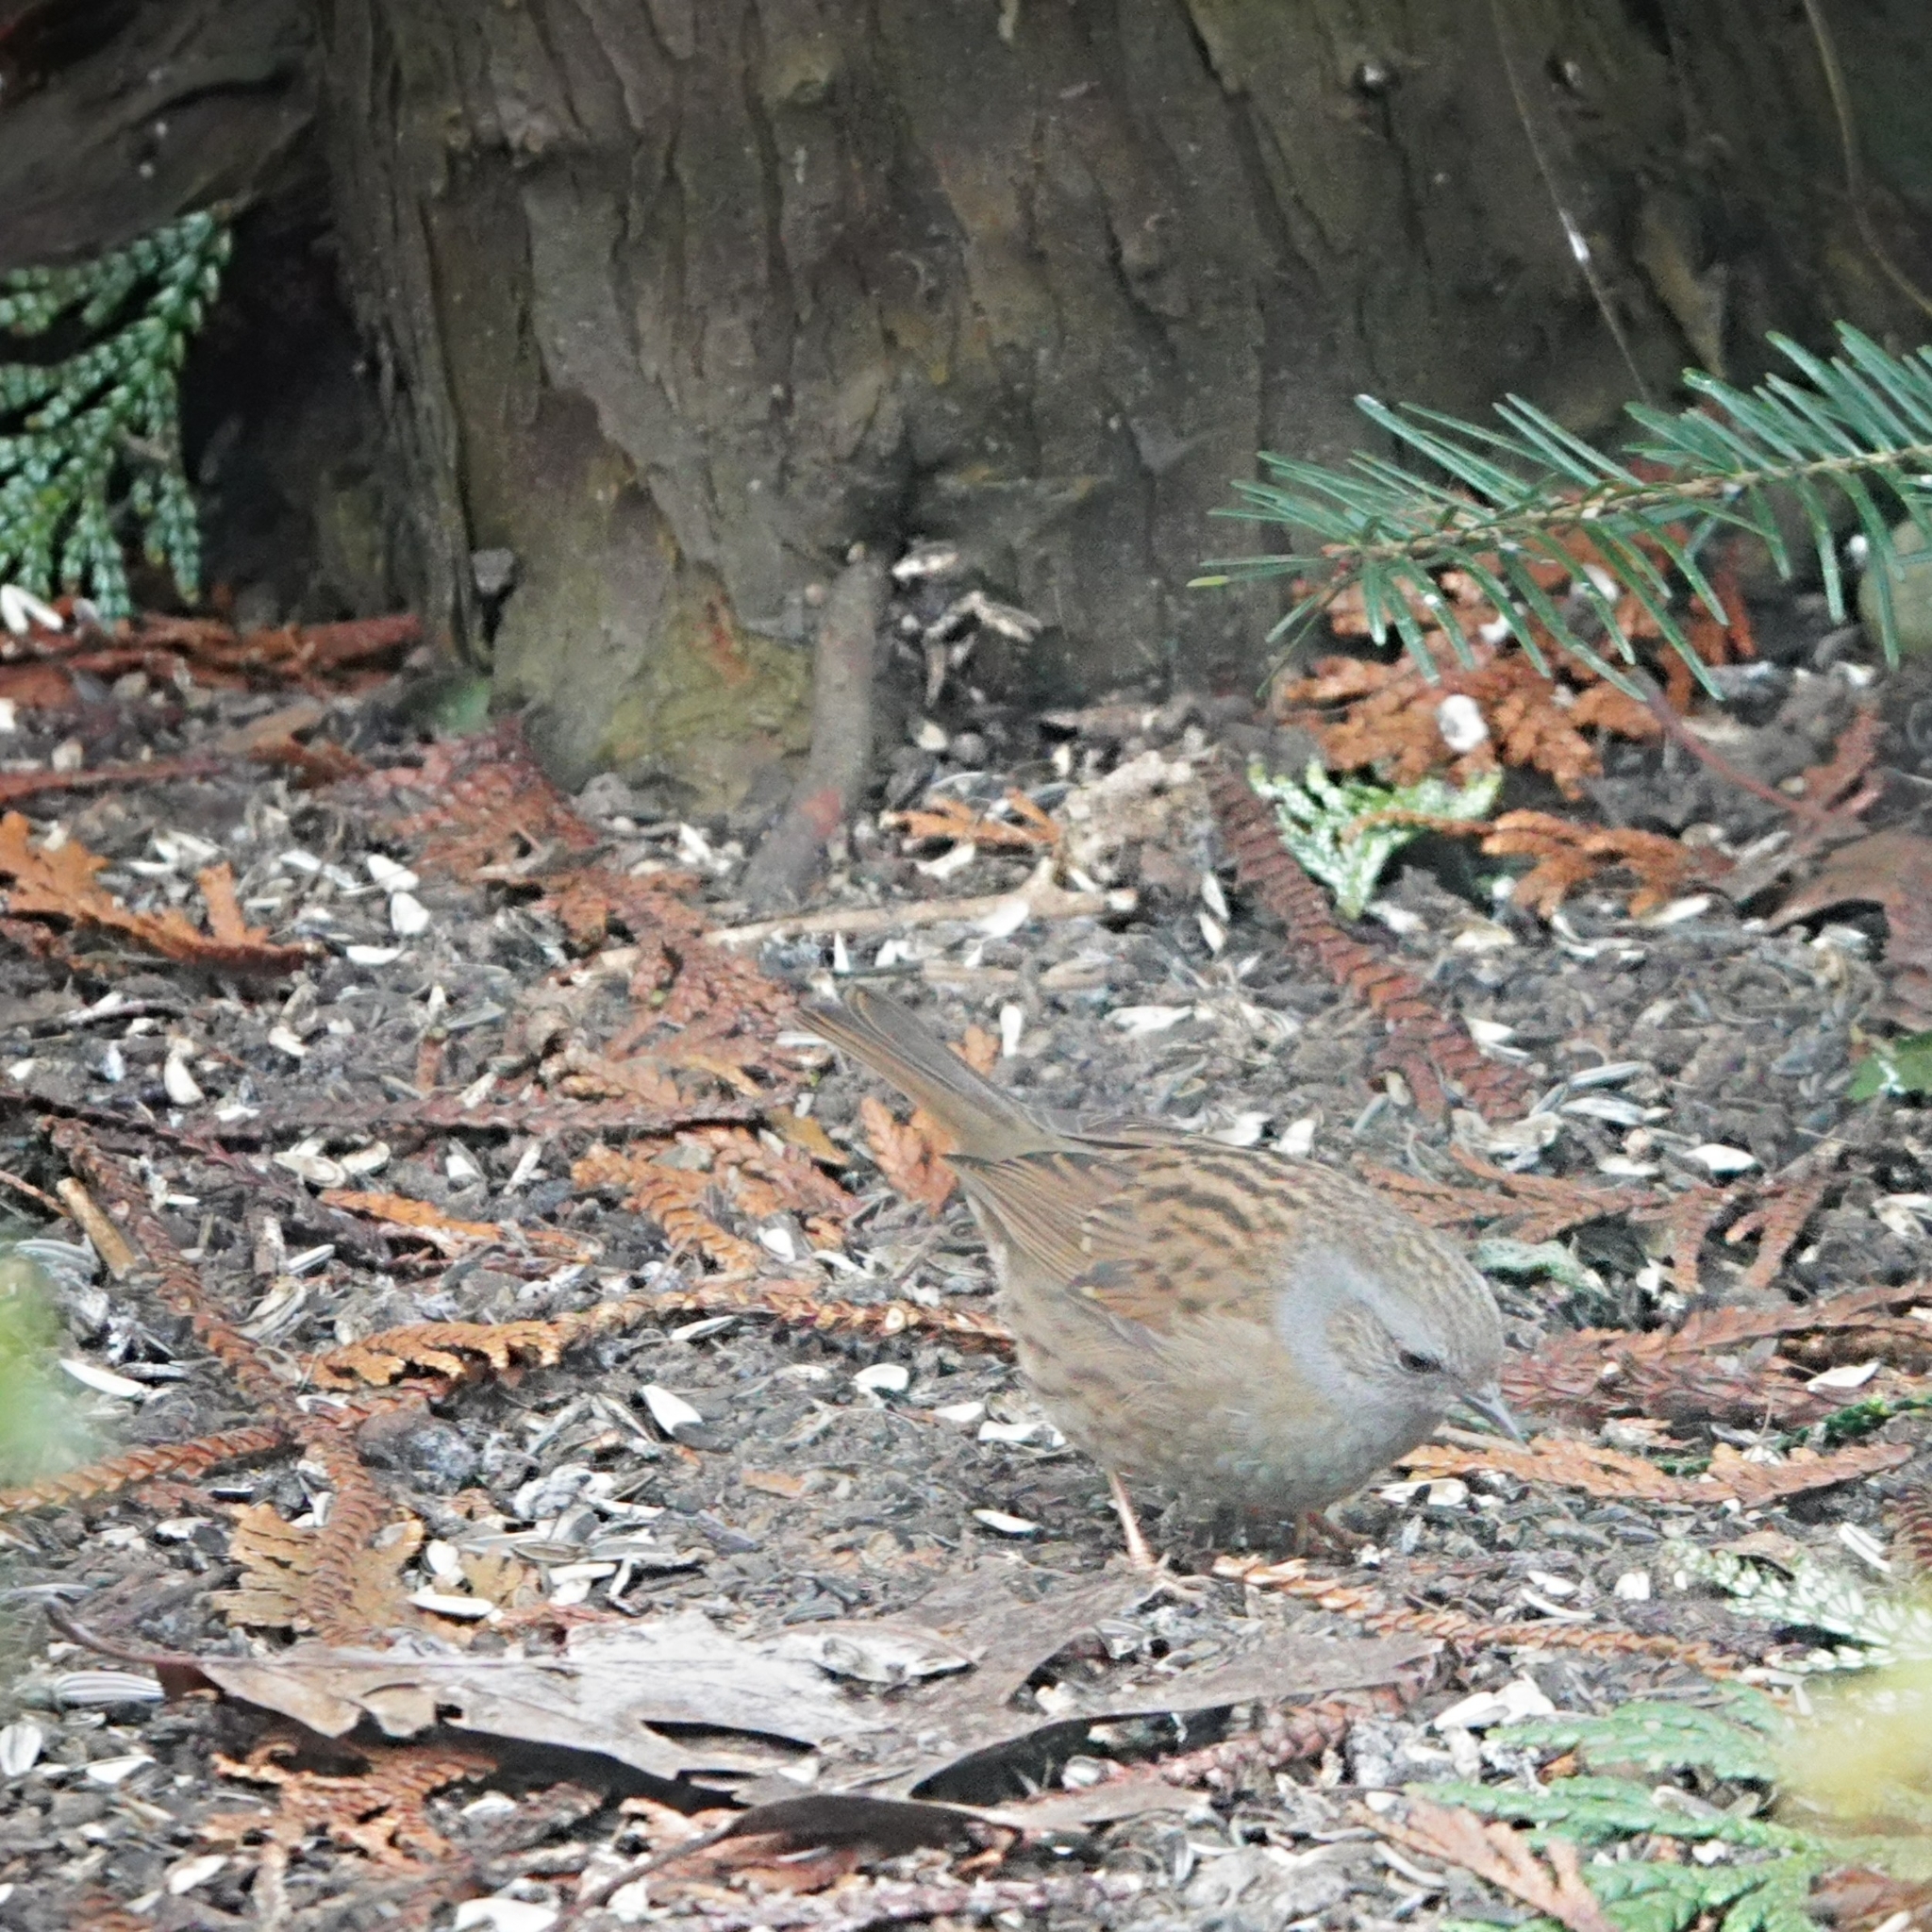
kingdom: Animalia
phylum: Chordata
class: Aves
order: Passeriformes
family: Prunellidae
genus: Prunella
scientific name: Prunella modularis
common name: Dunnock
